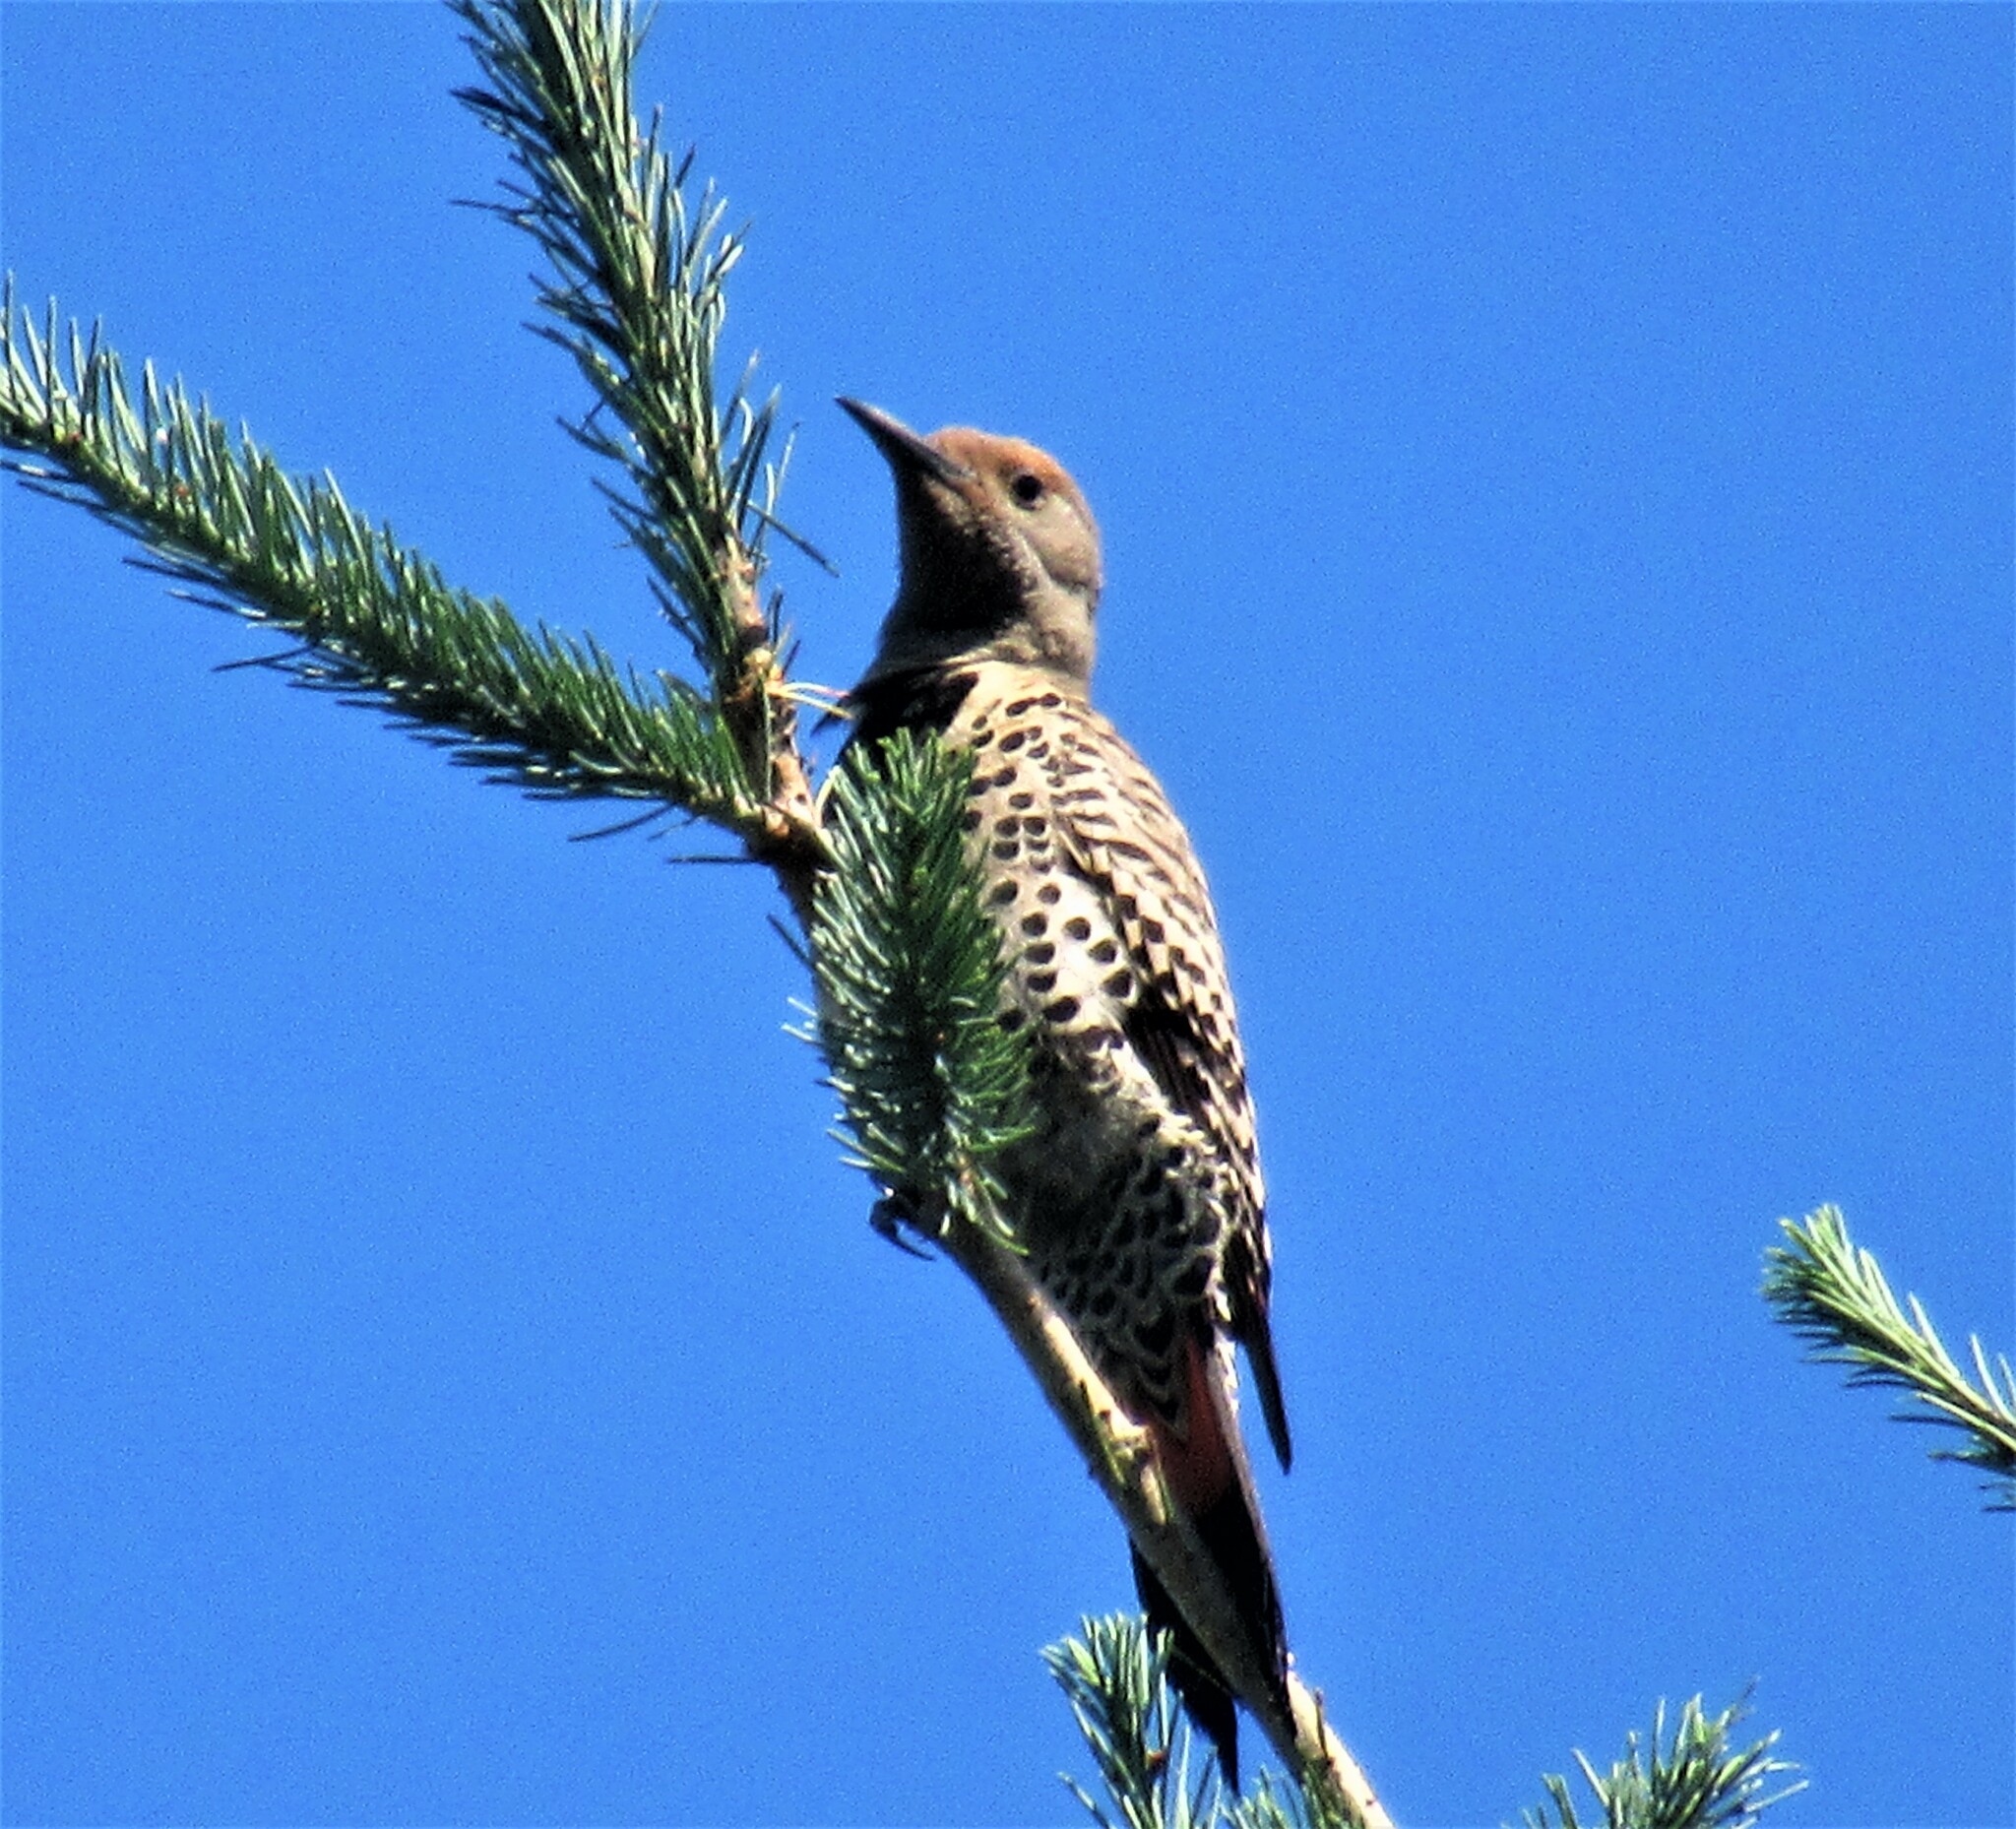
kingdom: Animalia
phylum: Chordata
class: Aves
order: Piciformes
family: Picidae
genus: Colaptes
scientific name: Colaptes auratus
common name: Northern flicker
